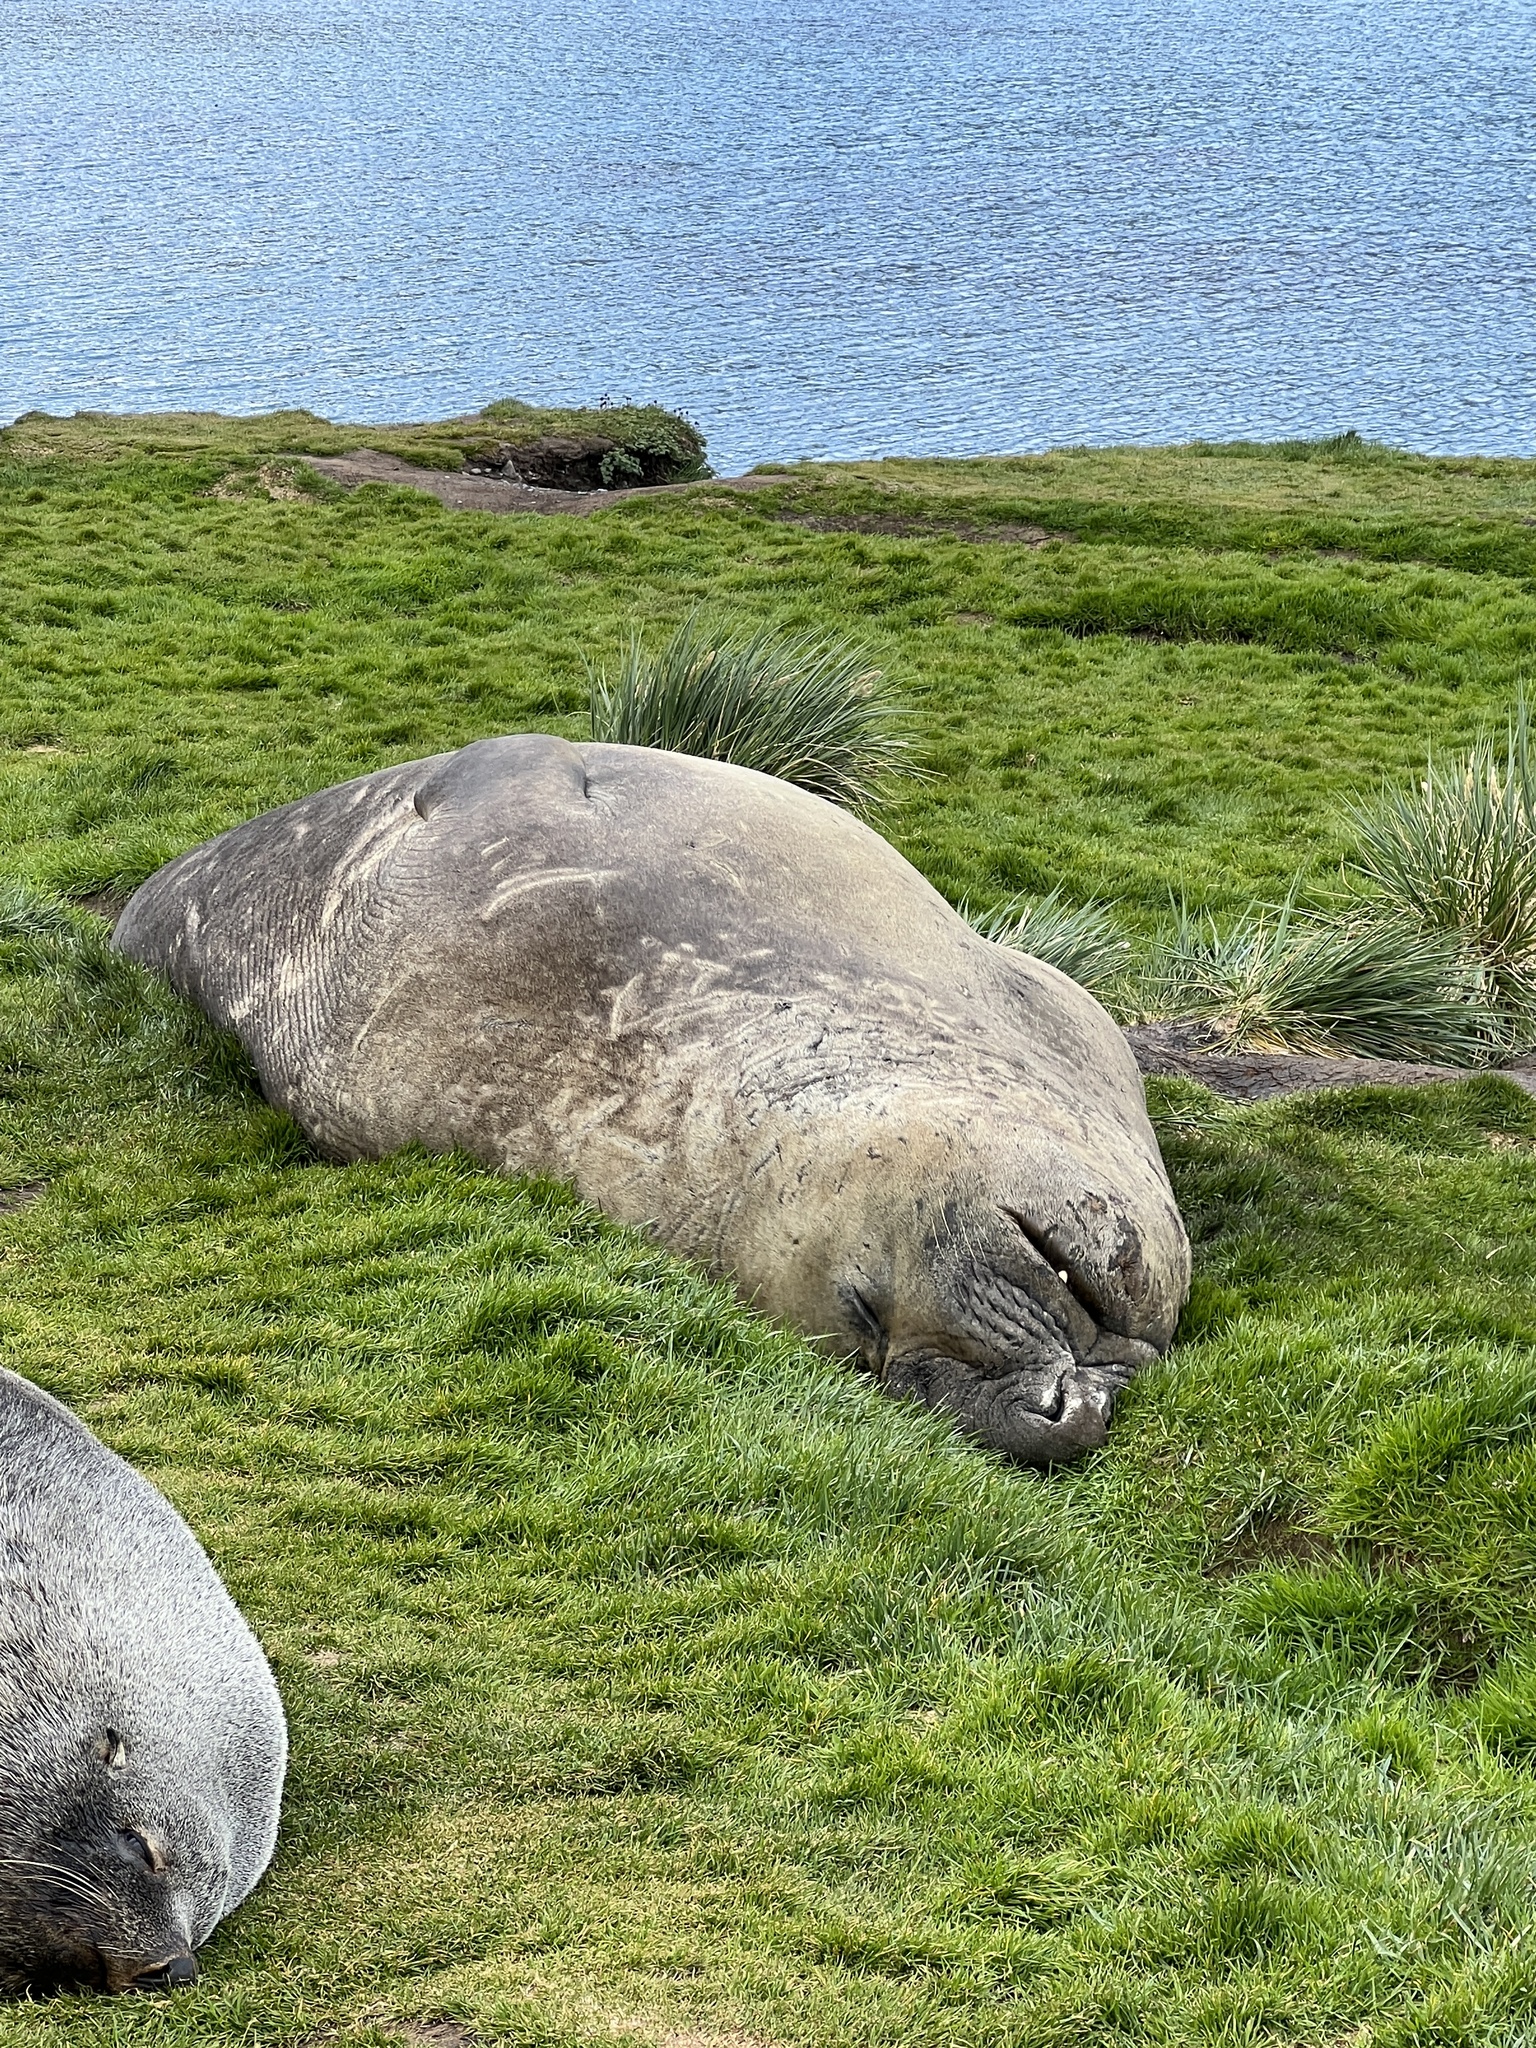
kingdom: Animalia
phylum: Chordata
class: Mammalia
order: Carnivora
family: Phocidae
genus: Mirounga
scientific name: Mirounga leonina
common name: Southern elephant seal
